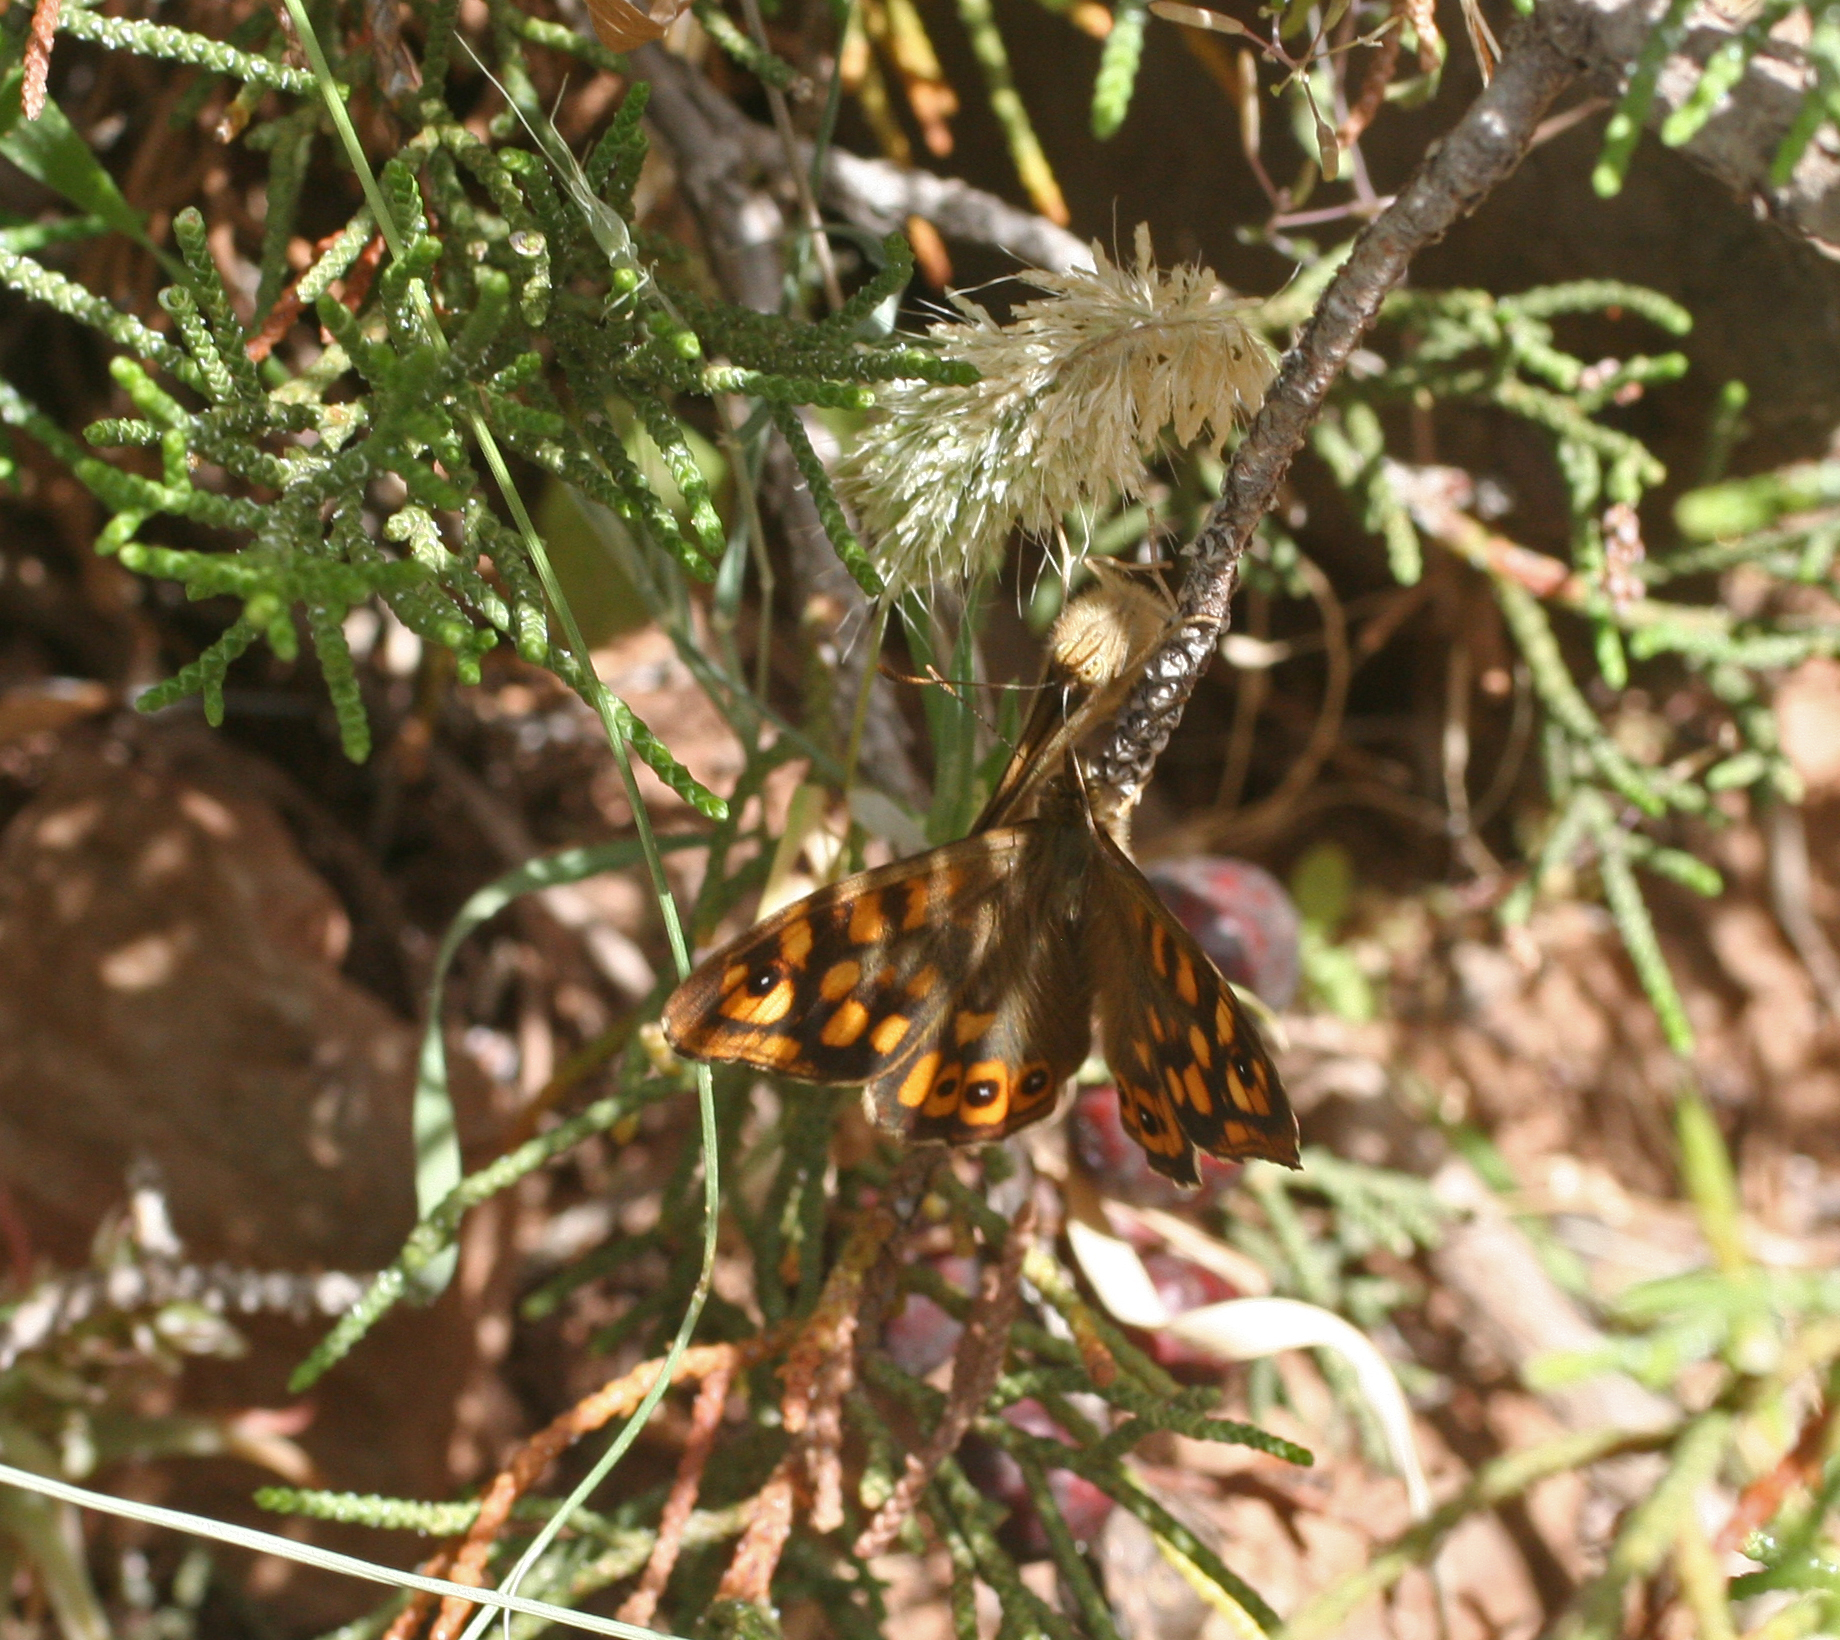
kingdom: Animalia
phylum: Arthropoda
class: Insecta
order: Lepidoptera
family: Nymphalidae
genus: Pararge
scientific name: Pararge aegeria
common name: Speckled wood
